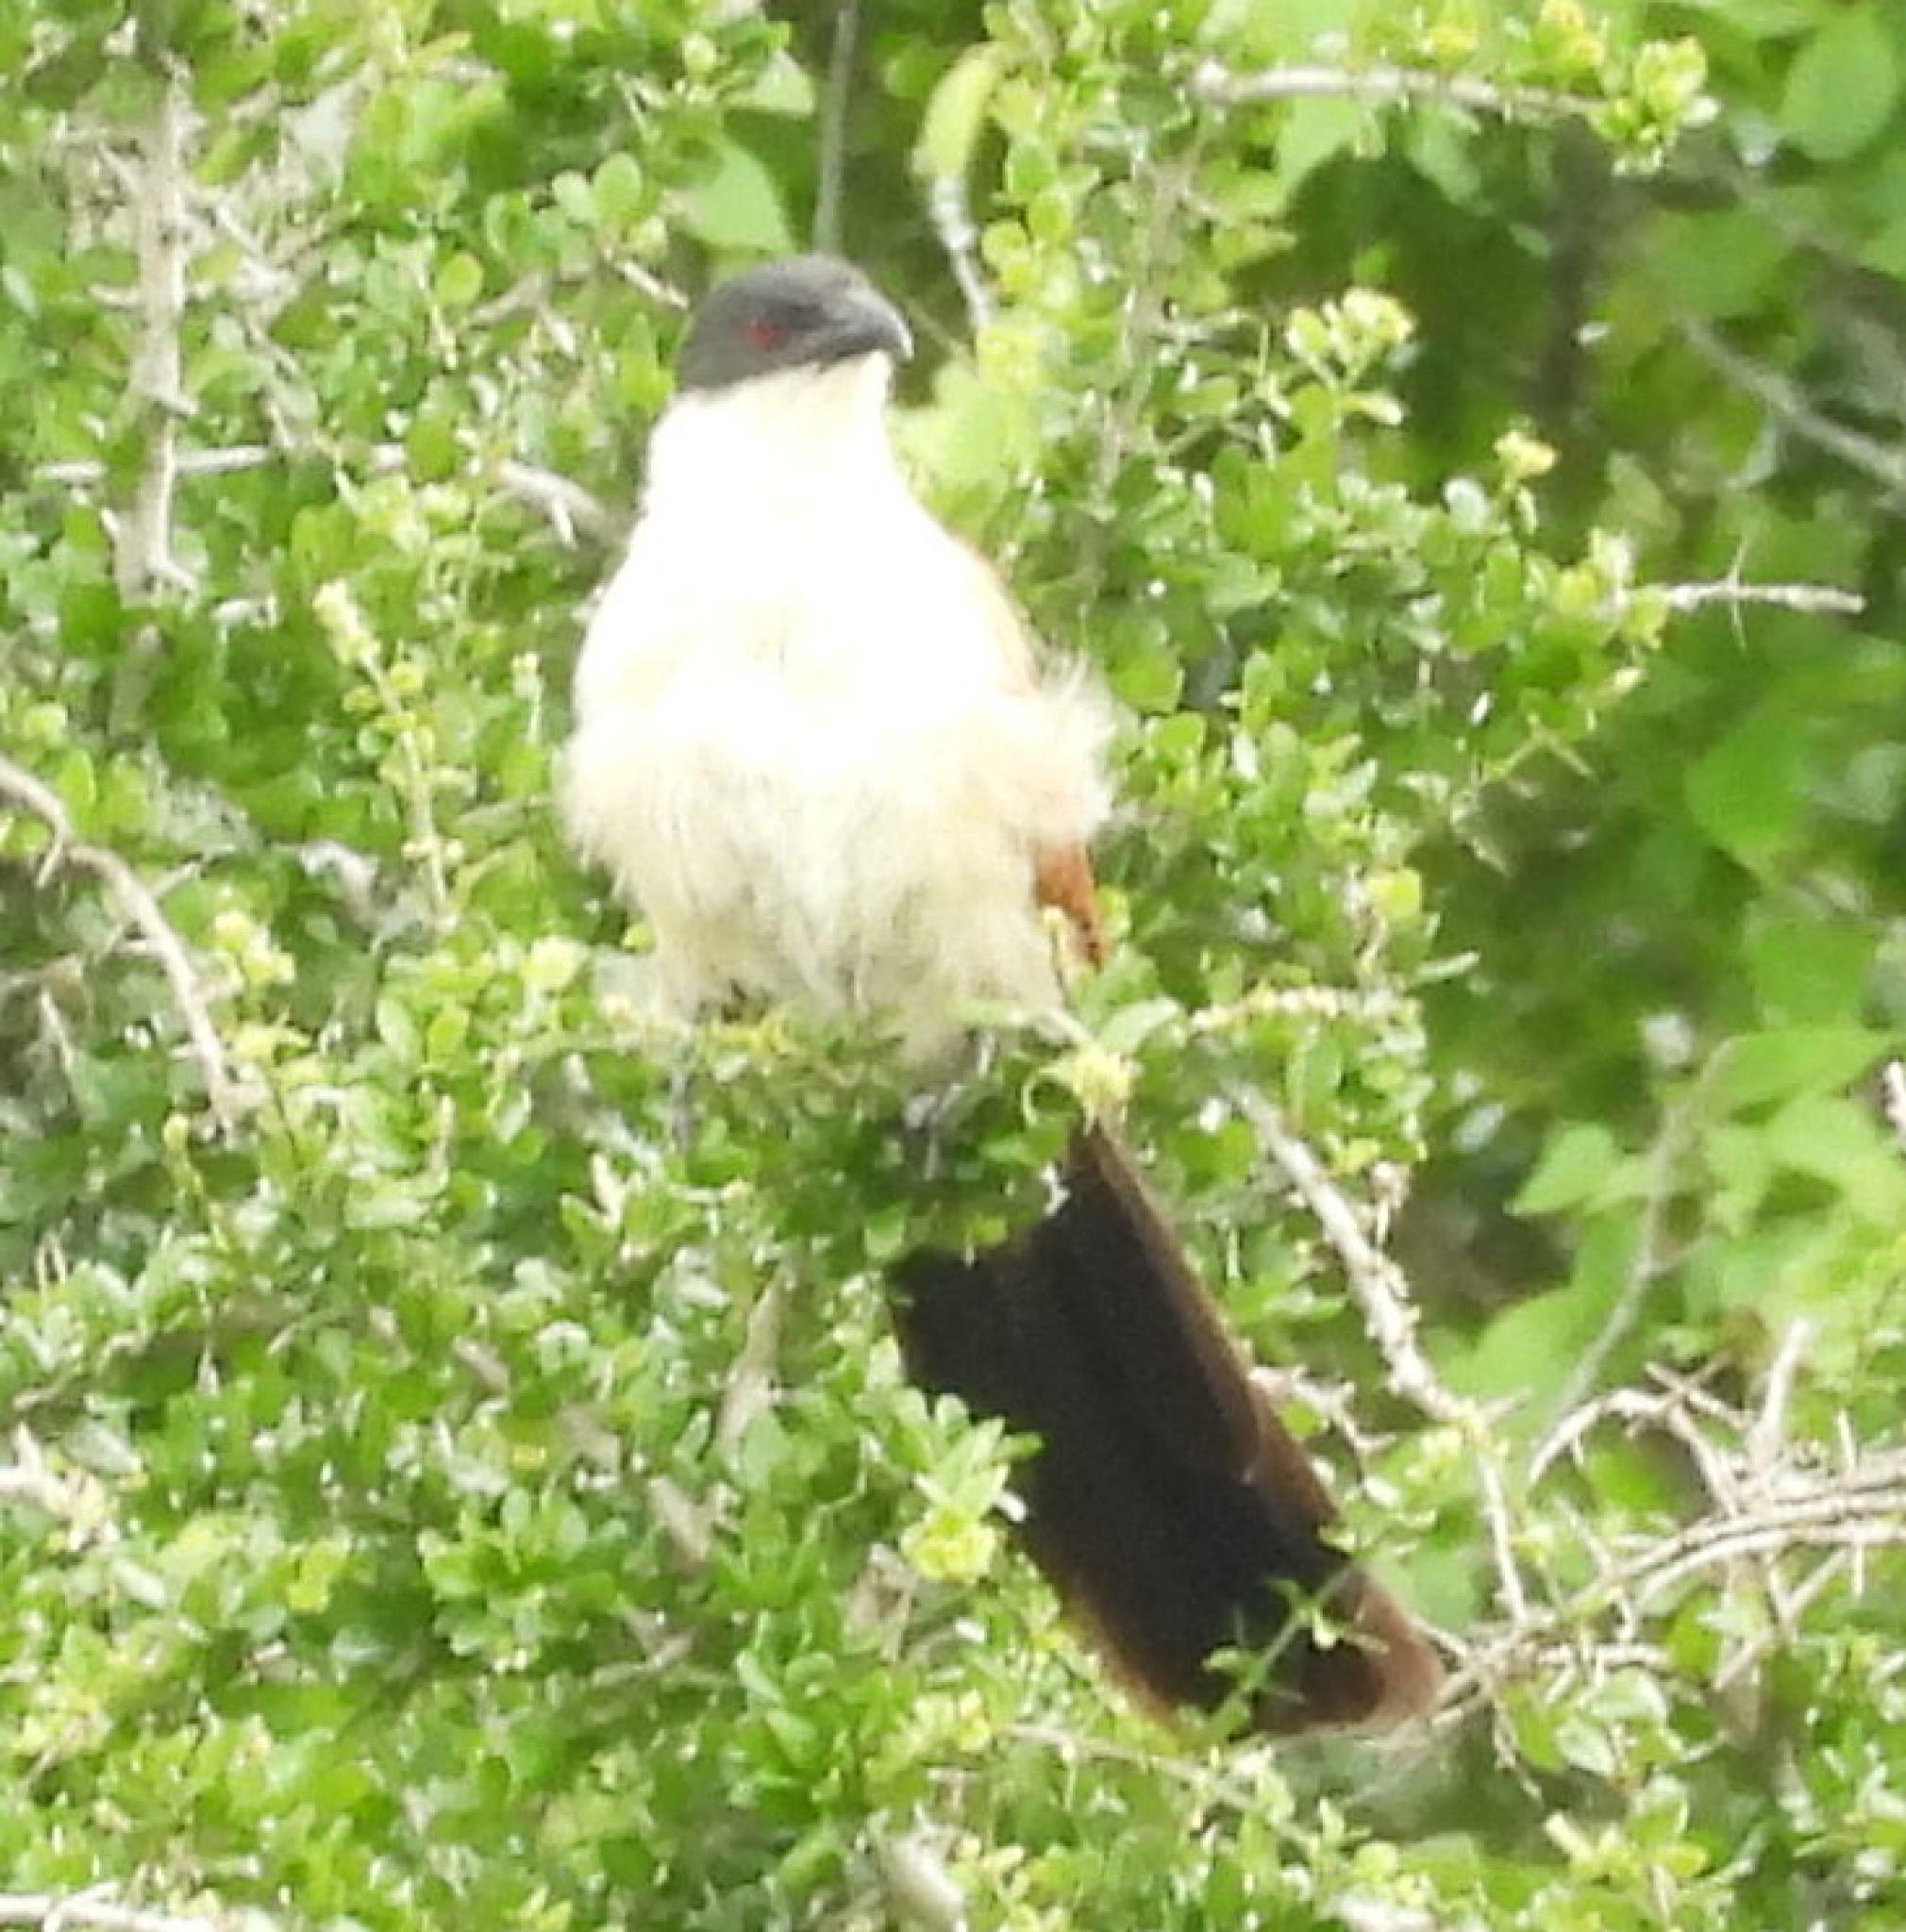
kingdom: Animalia
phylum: Chordata
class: Aves
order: Cuculiformes
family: Cuculidae
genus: Centropus
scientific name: Centropus superciliosus
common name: White-browed coucal
